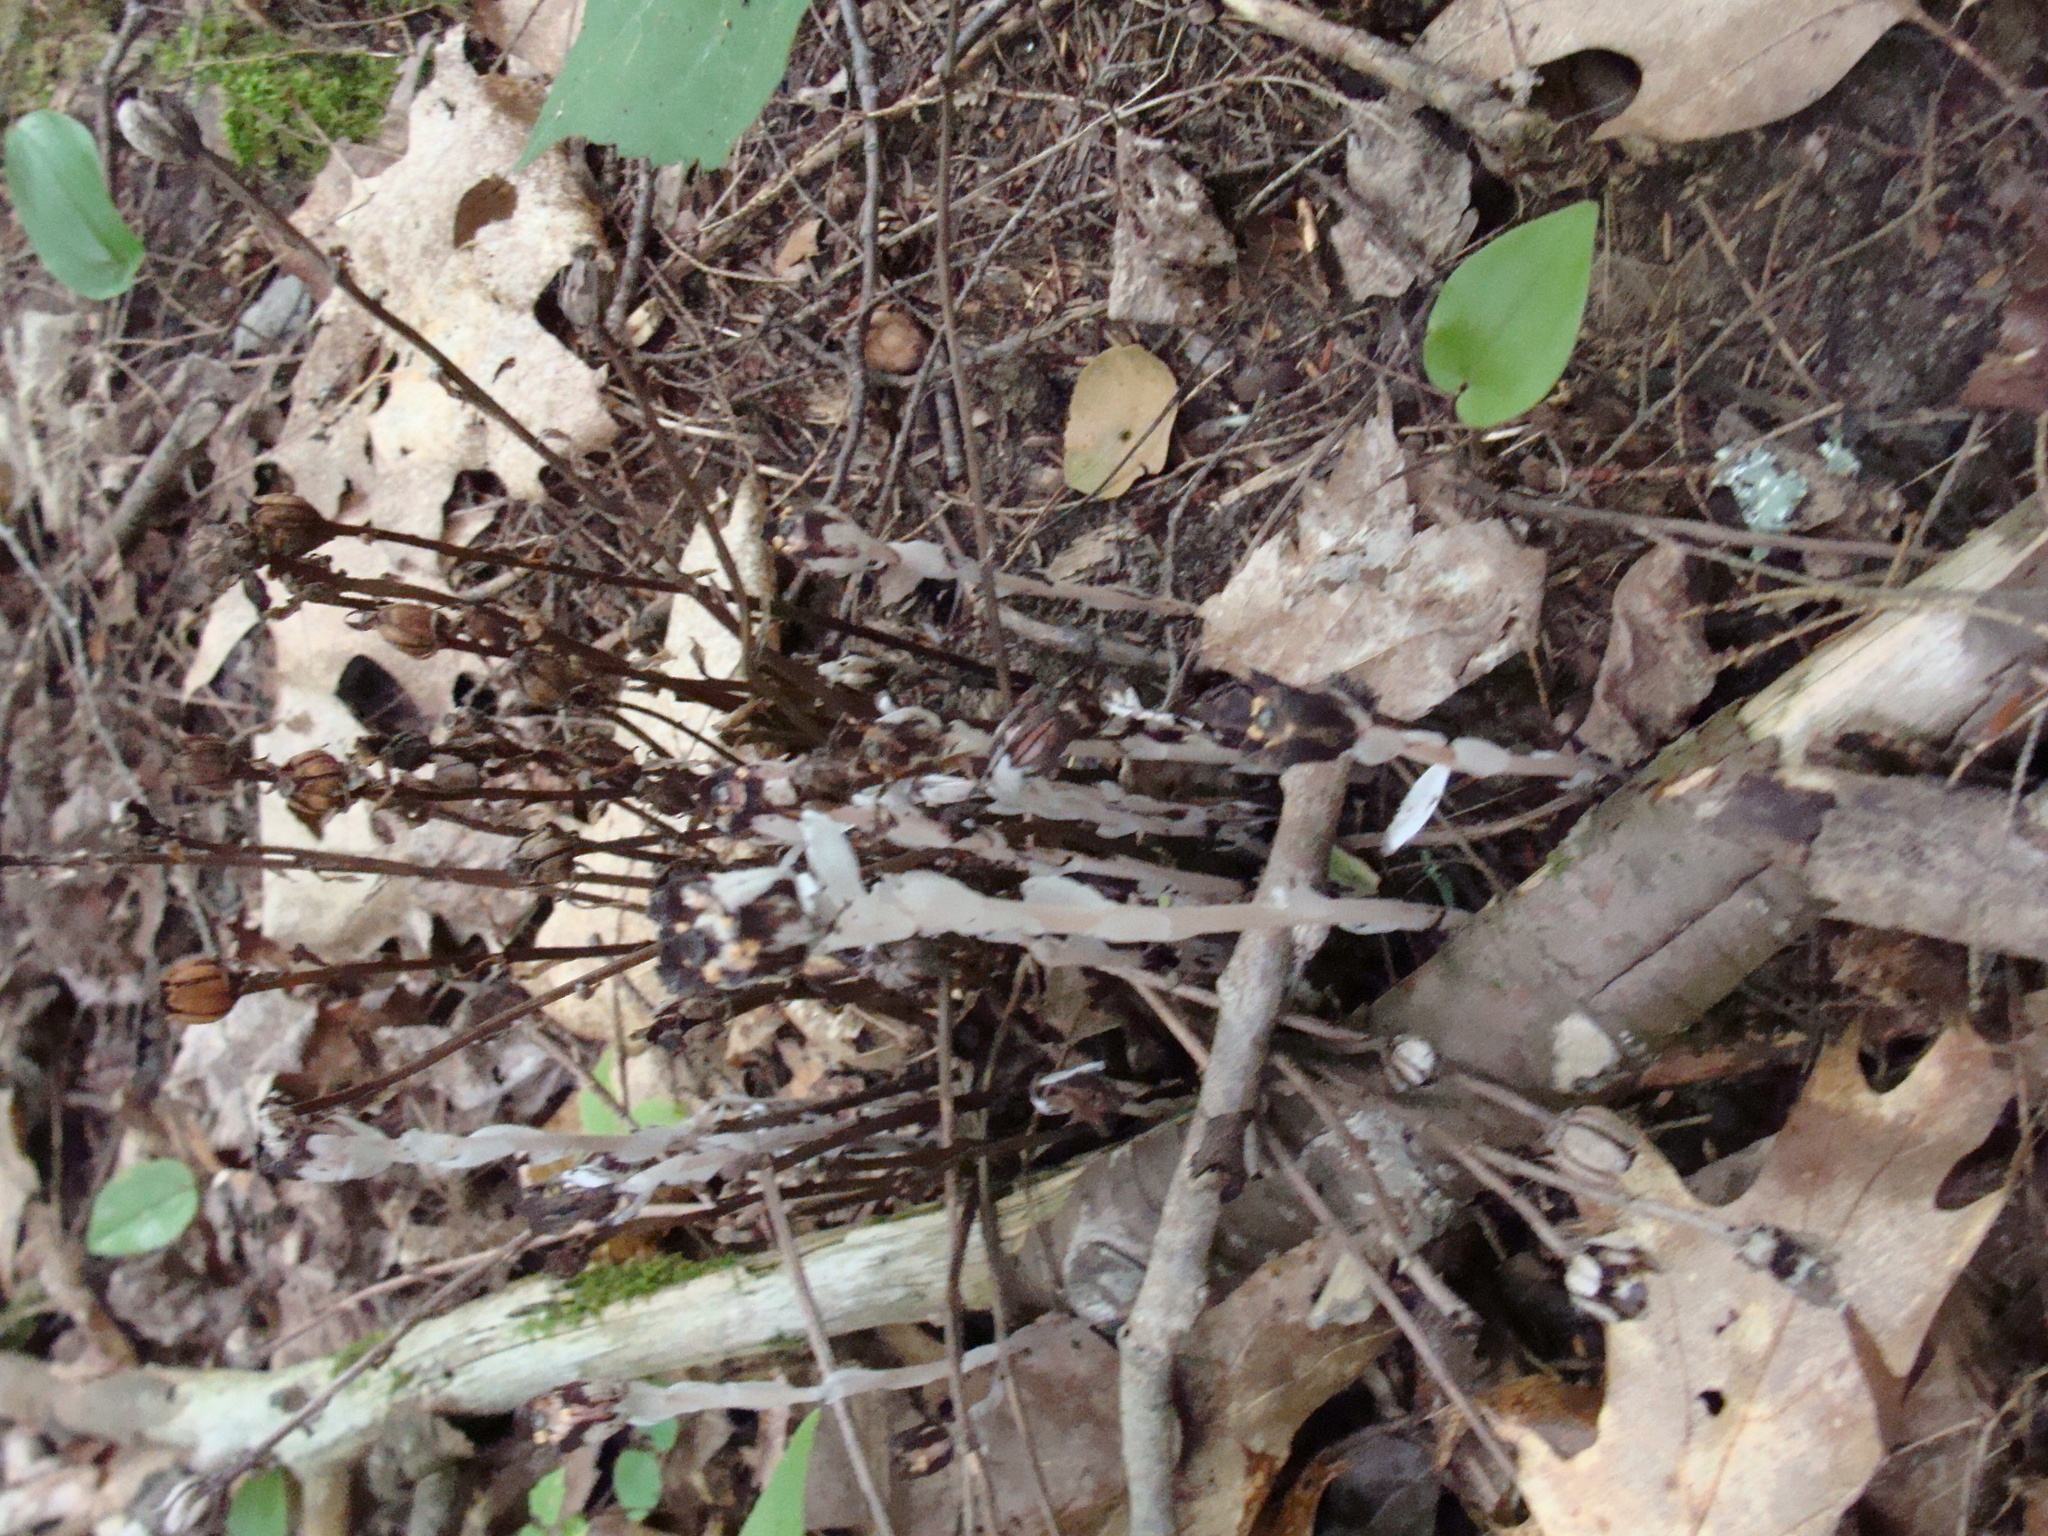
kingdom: Plantae
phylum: Tracheophyta
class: Magnoliopsida
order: Ericales
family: Ericaceae
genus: Monotropa
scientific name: Monotropa uniflora
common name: Convulsion root
